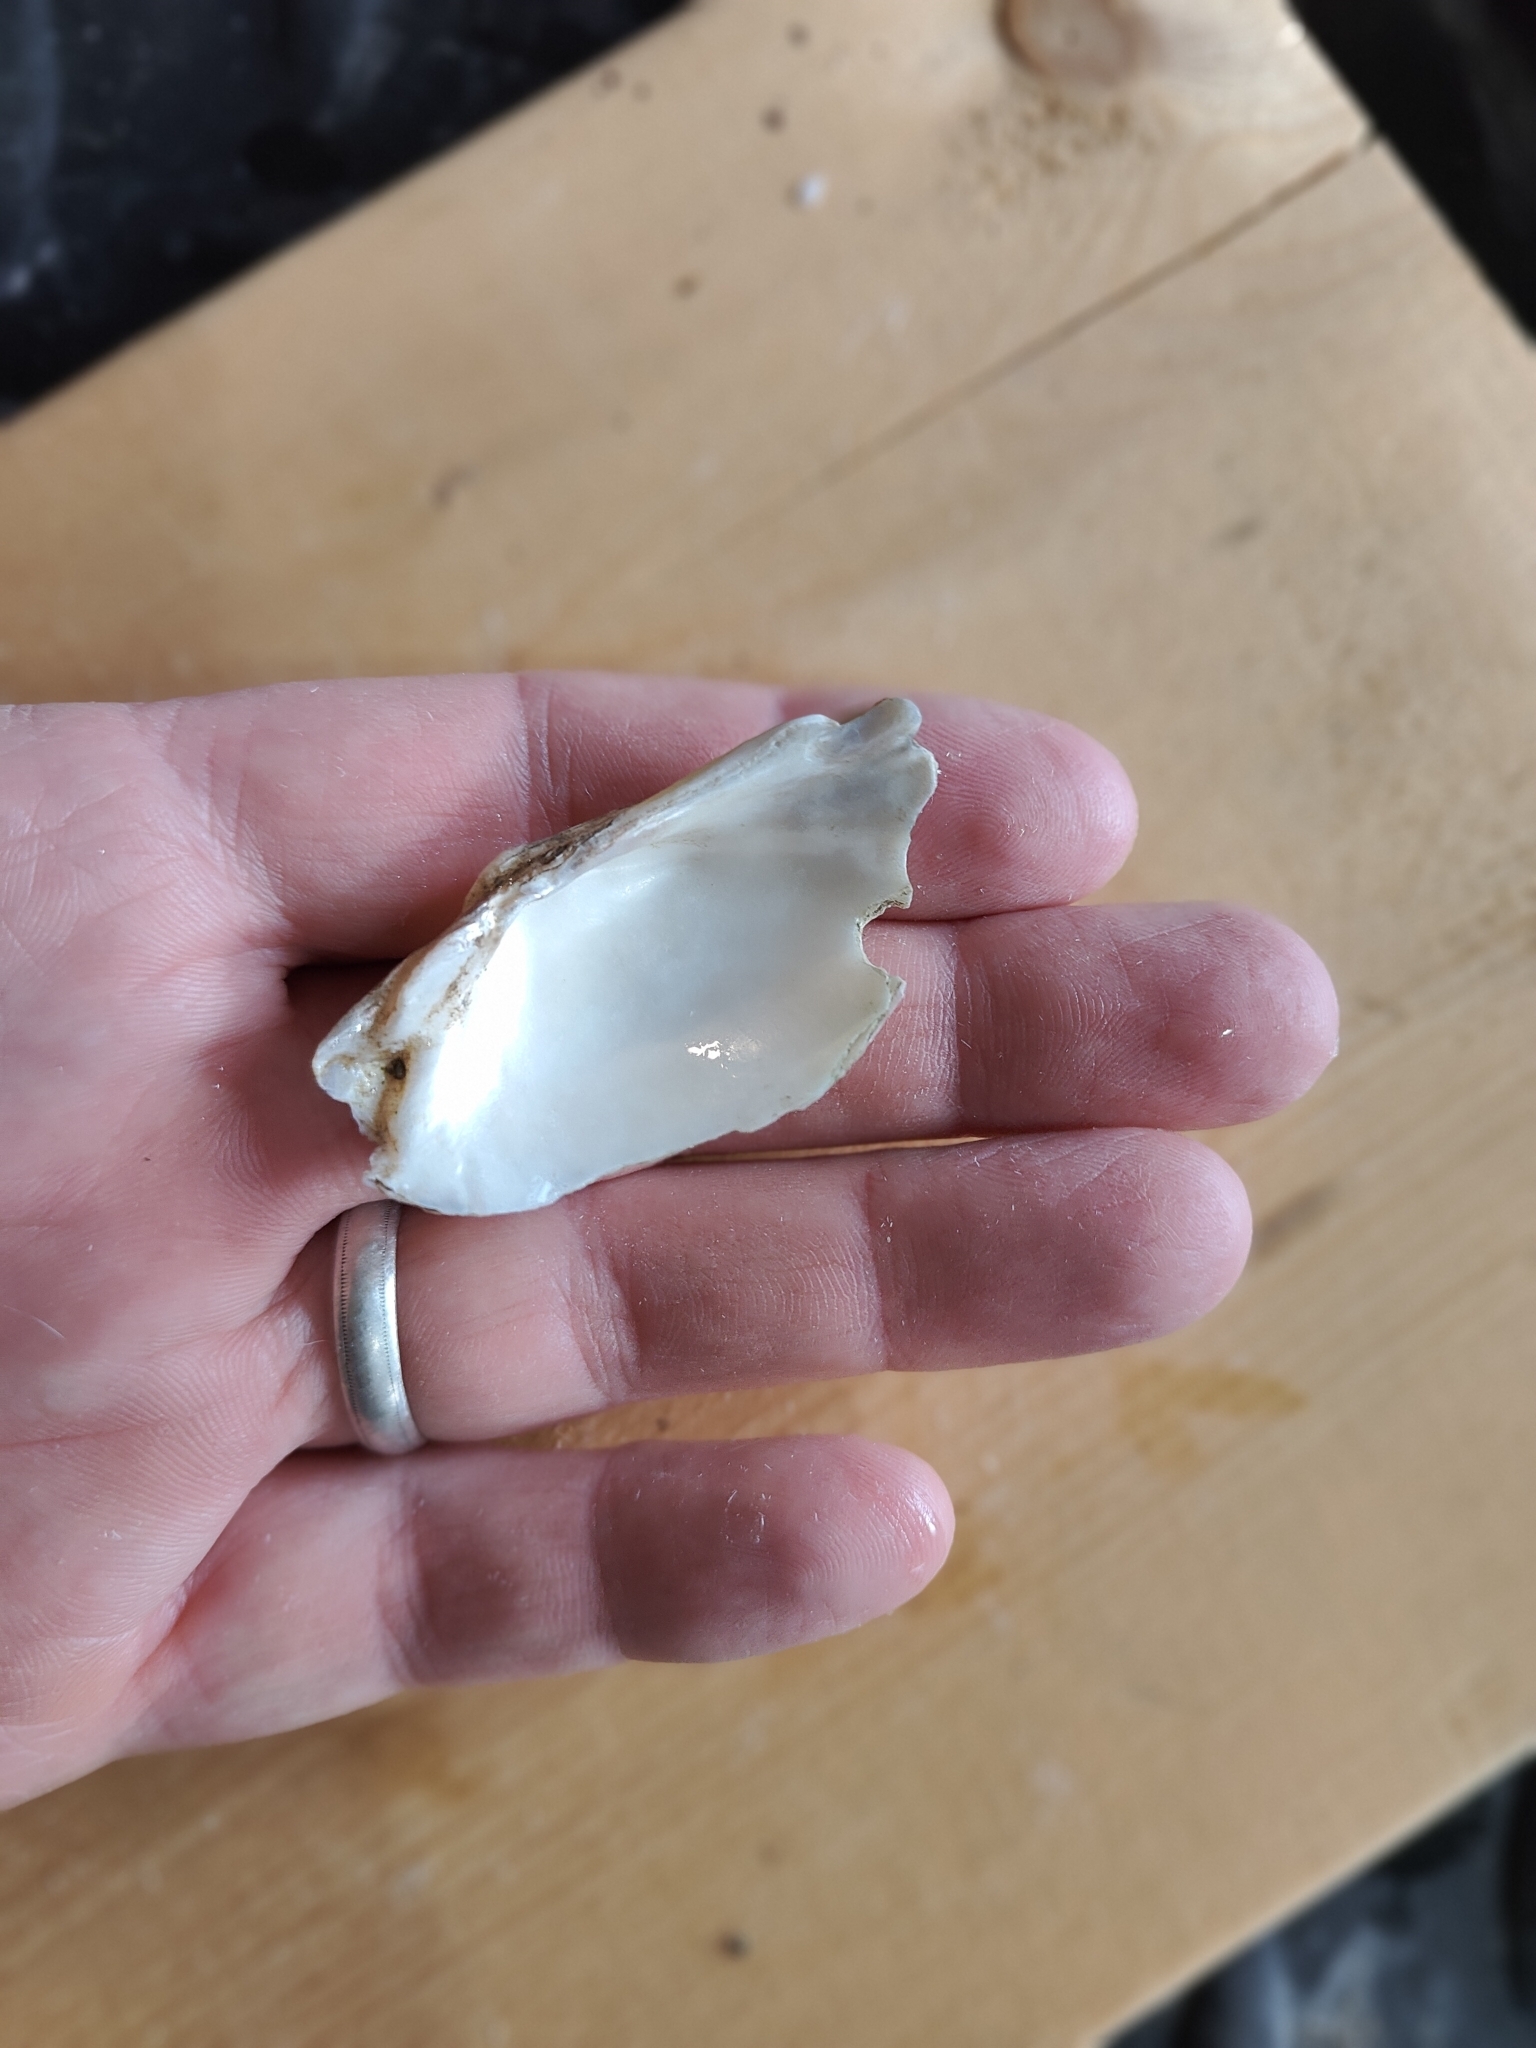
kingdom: Animalia
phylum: Mollusca
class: Bivalvia
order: Unionida
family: Unionidae
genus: Alasmidonta
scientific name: Alasmidonta marginata
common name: Elktoe
